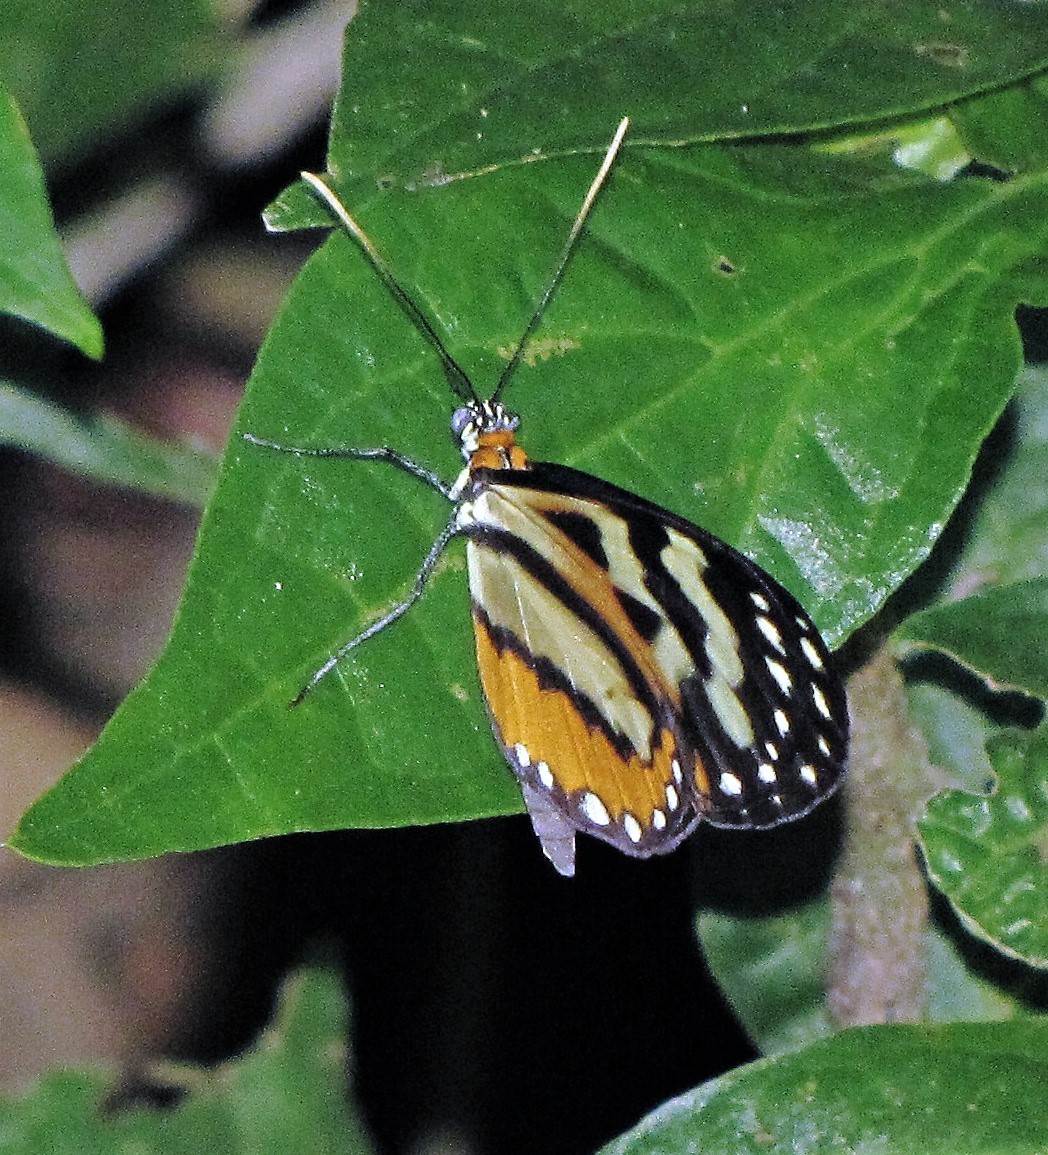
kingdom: Animalia
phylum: Arthropoda
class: Insecta
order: Lepidoptera
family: Nymphalidae
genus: Hypothyris
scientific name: Hypothyris euclea
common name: Euclea tigerwing
